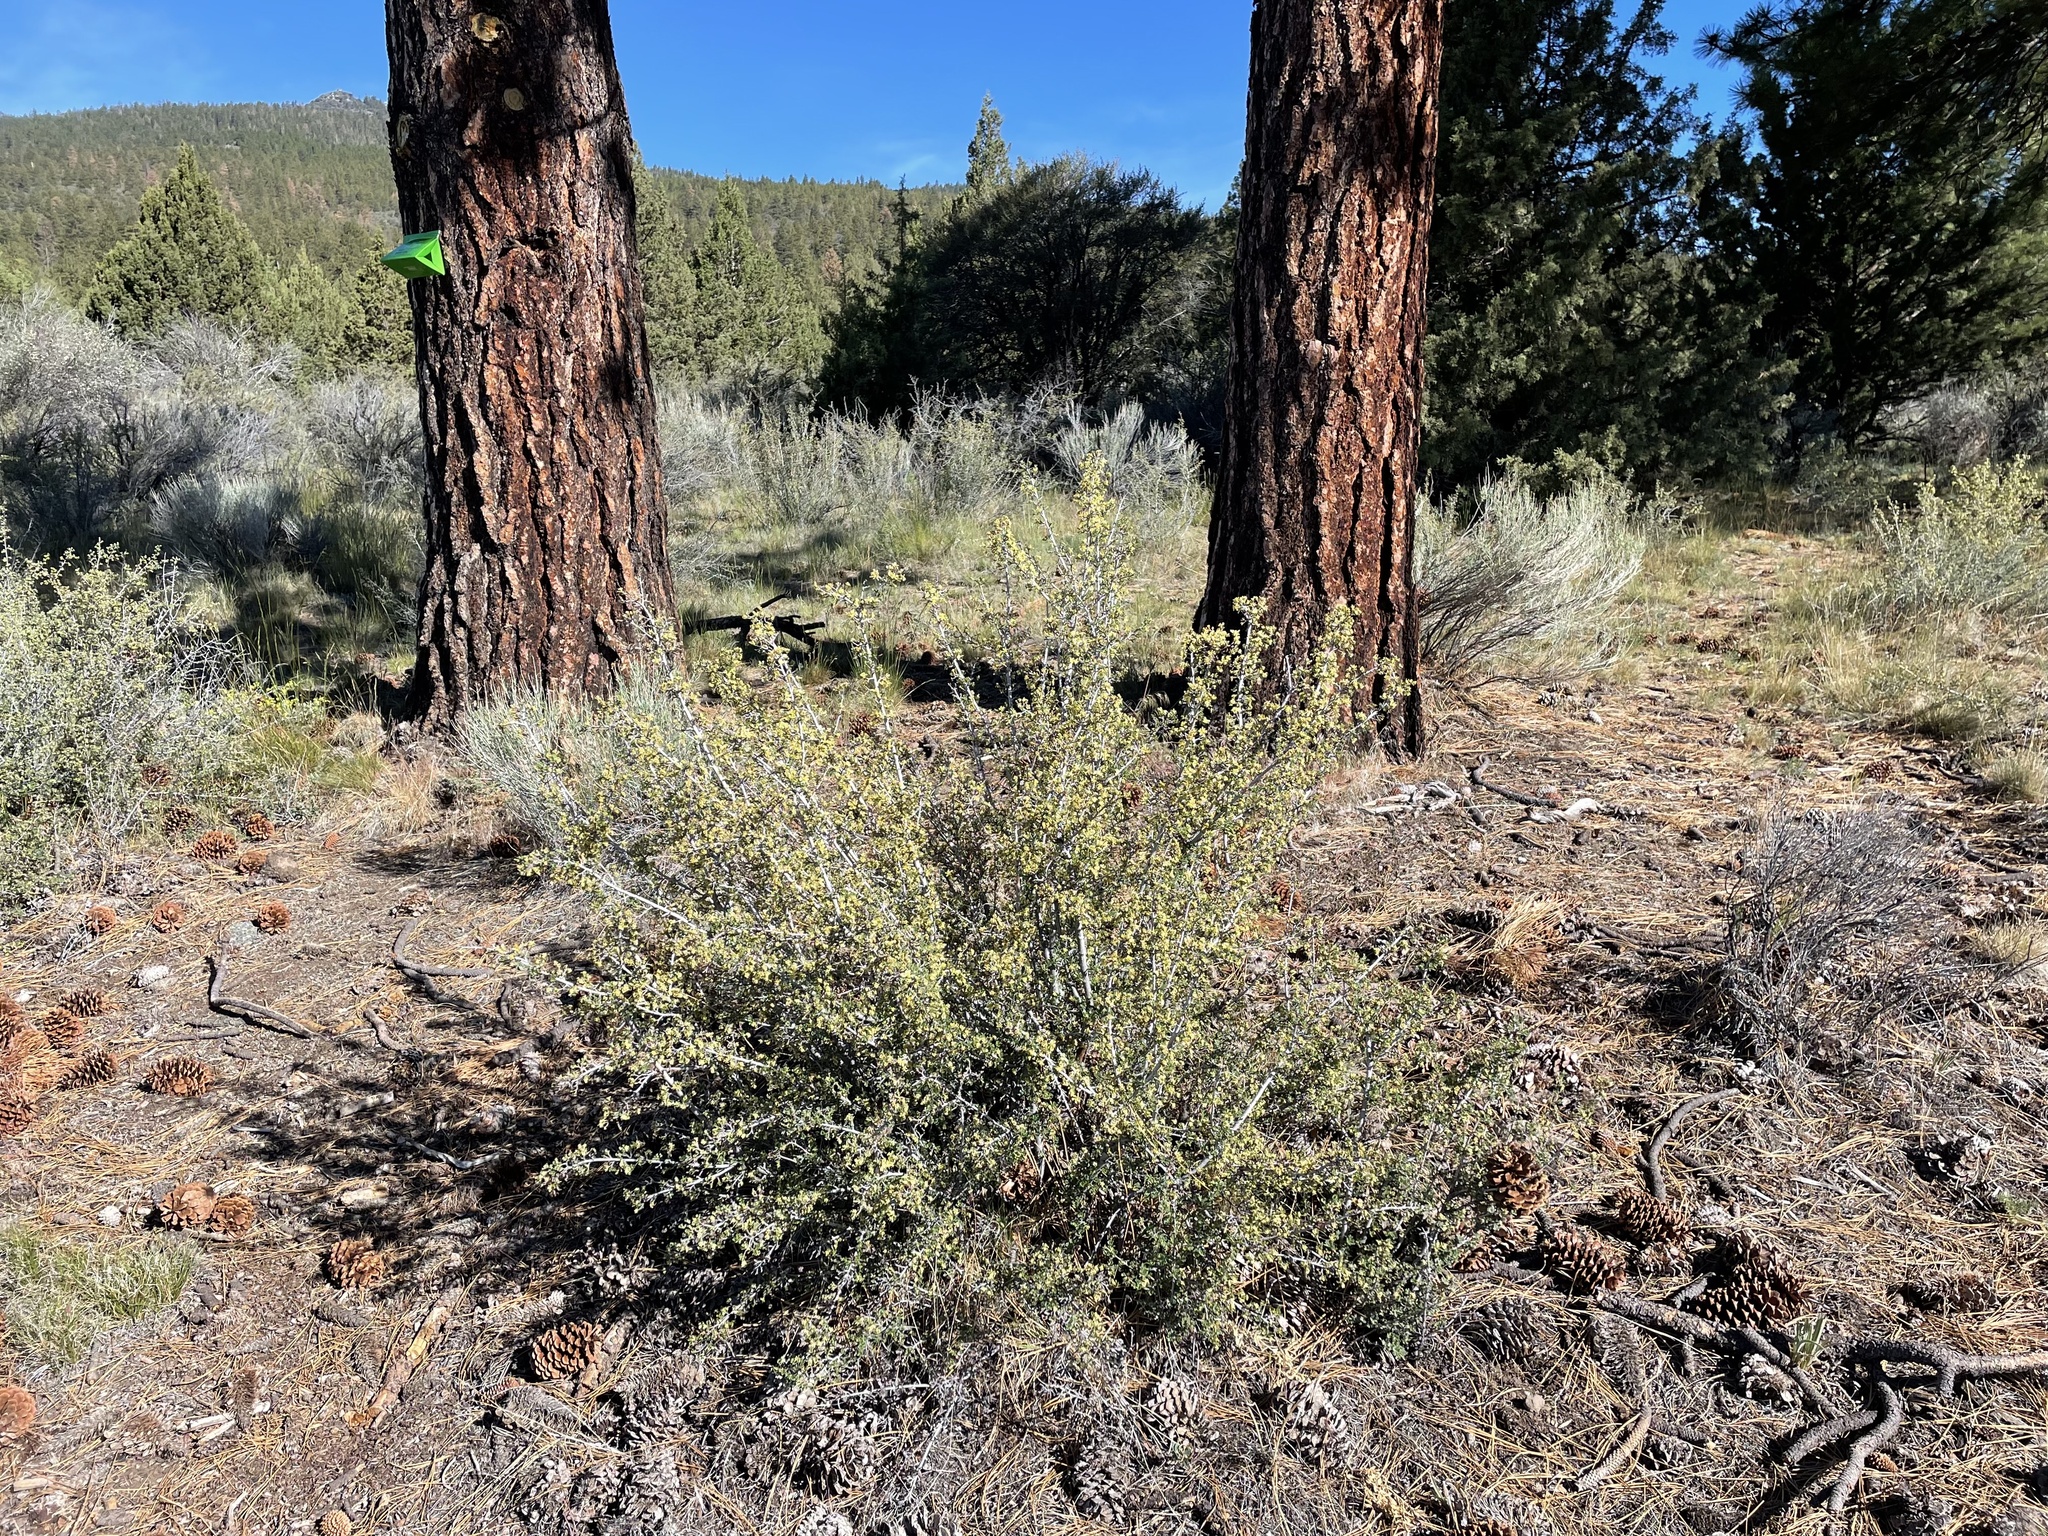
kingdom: Plantae
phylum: Tracheophyta
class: Magnoliopsida
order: Rosales
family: Rosaceae
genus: Purshia
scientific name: Purshia tridentata
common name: Antelope bitterbrush
